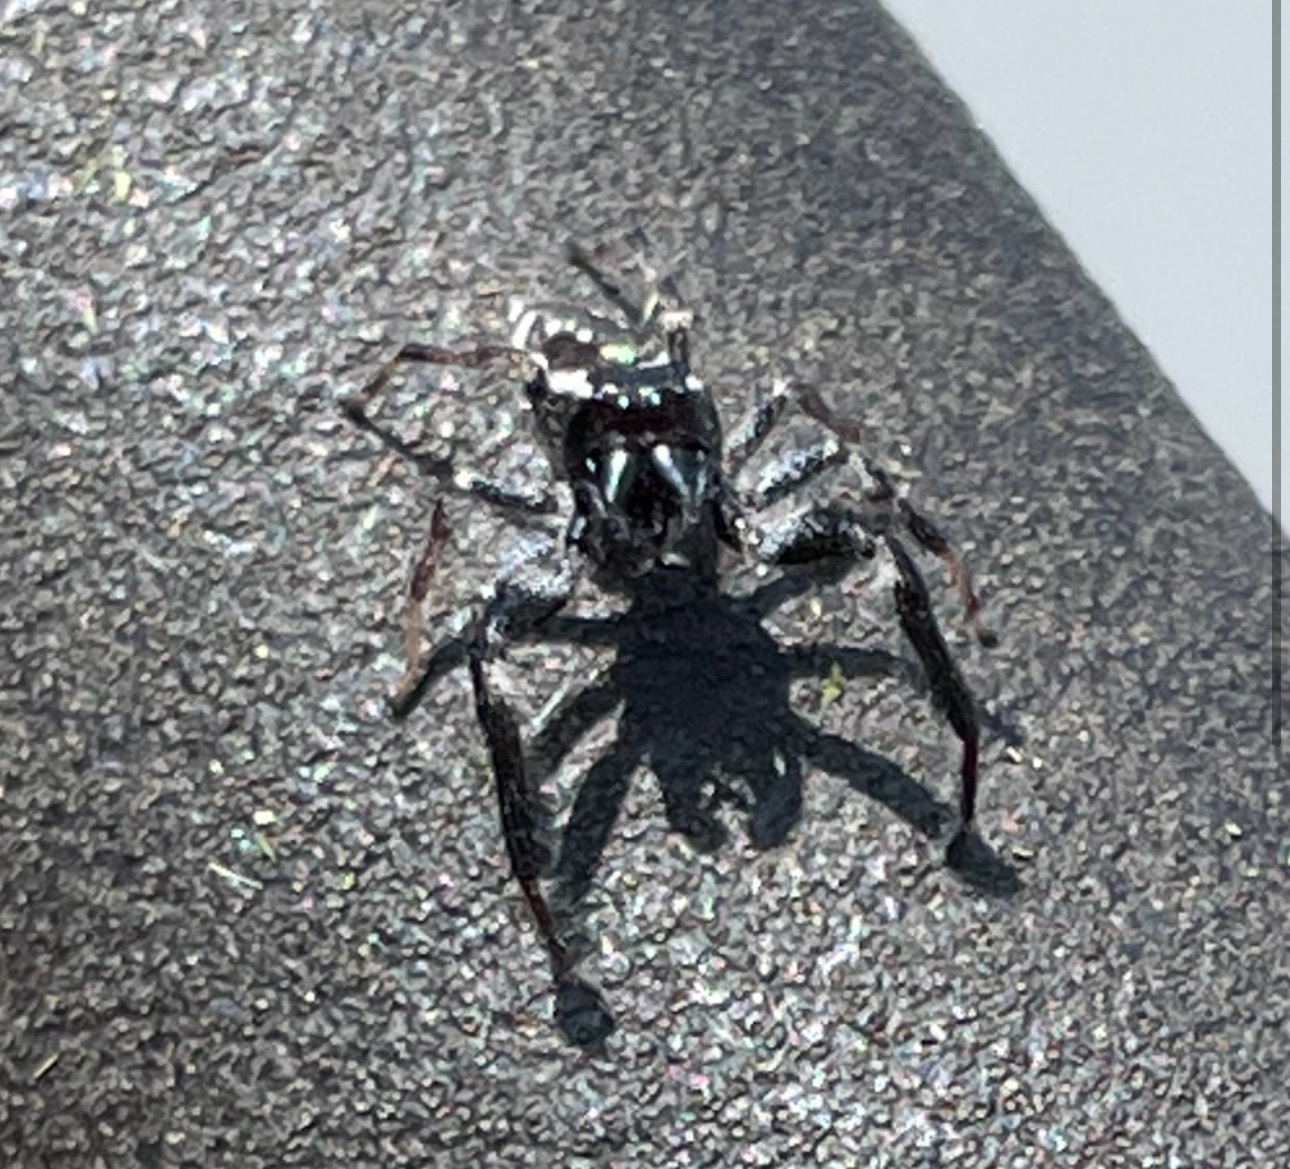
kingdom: Animalia
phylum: Arthropoda
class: Arachnida
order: Araneae
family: Salticidae
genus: Paraphidippus
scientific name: Paraphidippus aurantius
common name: Jumping spiders
